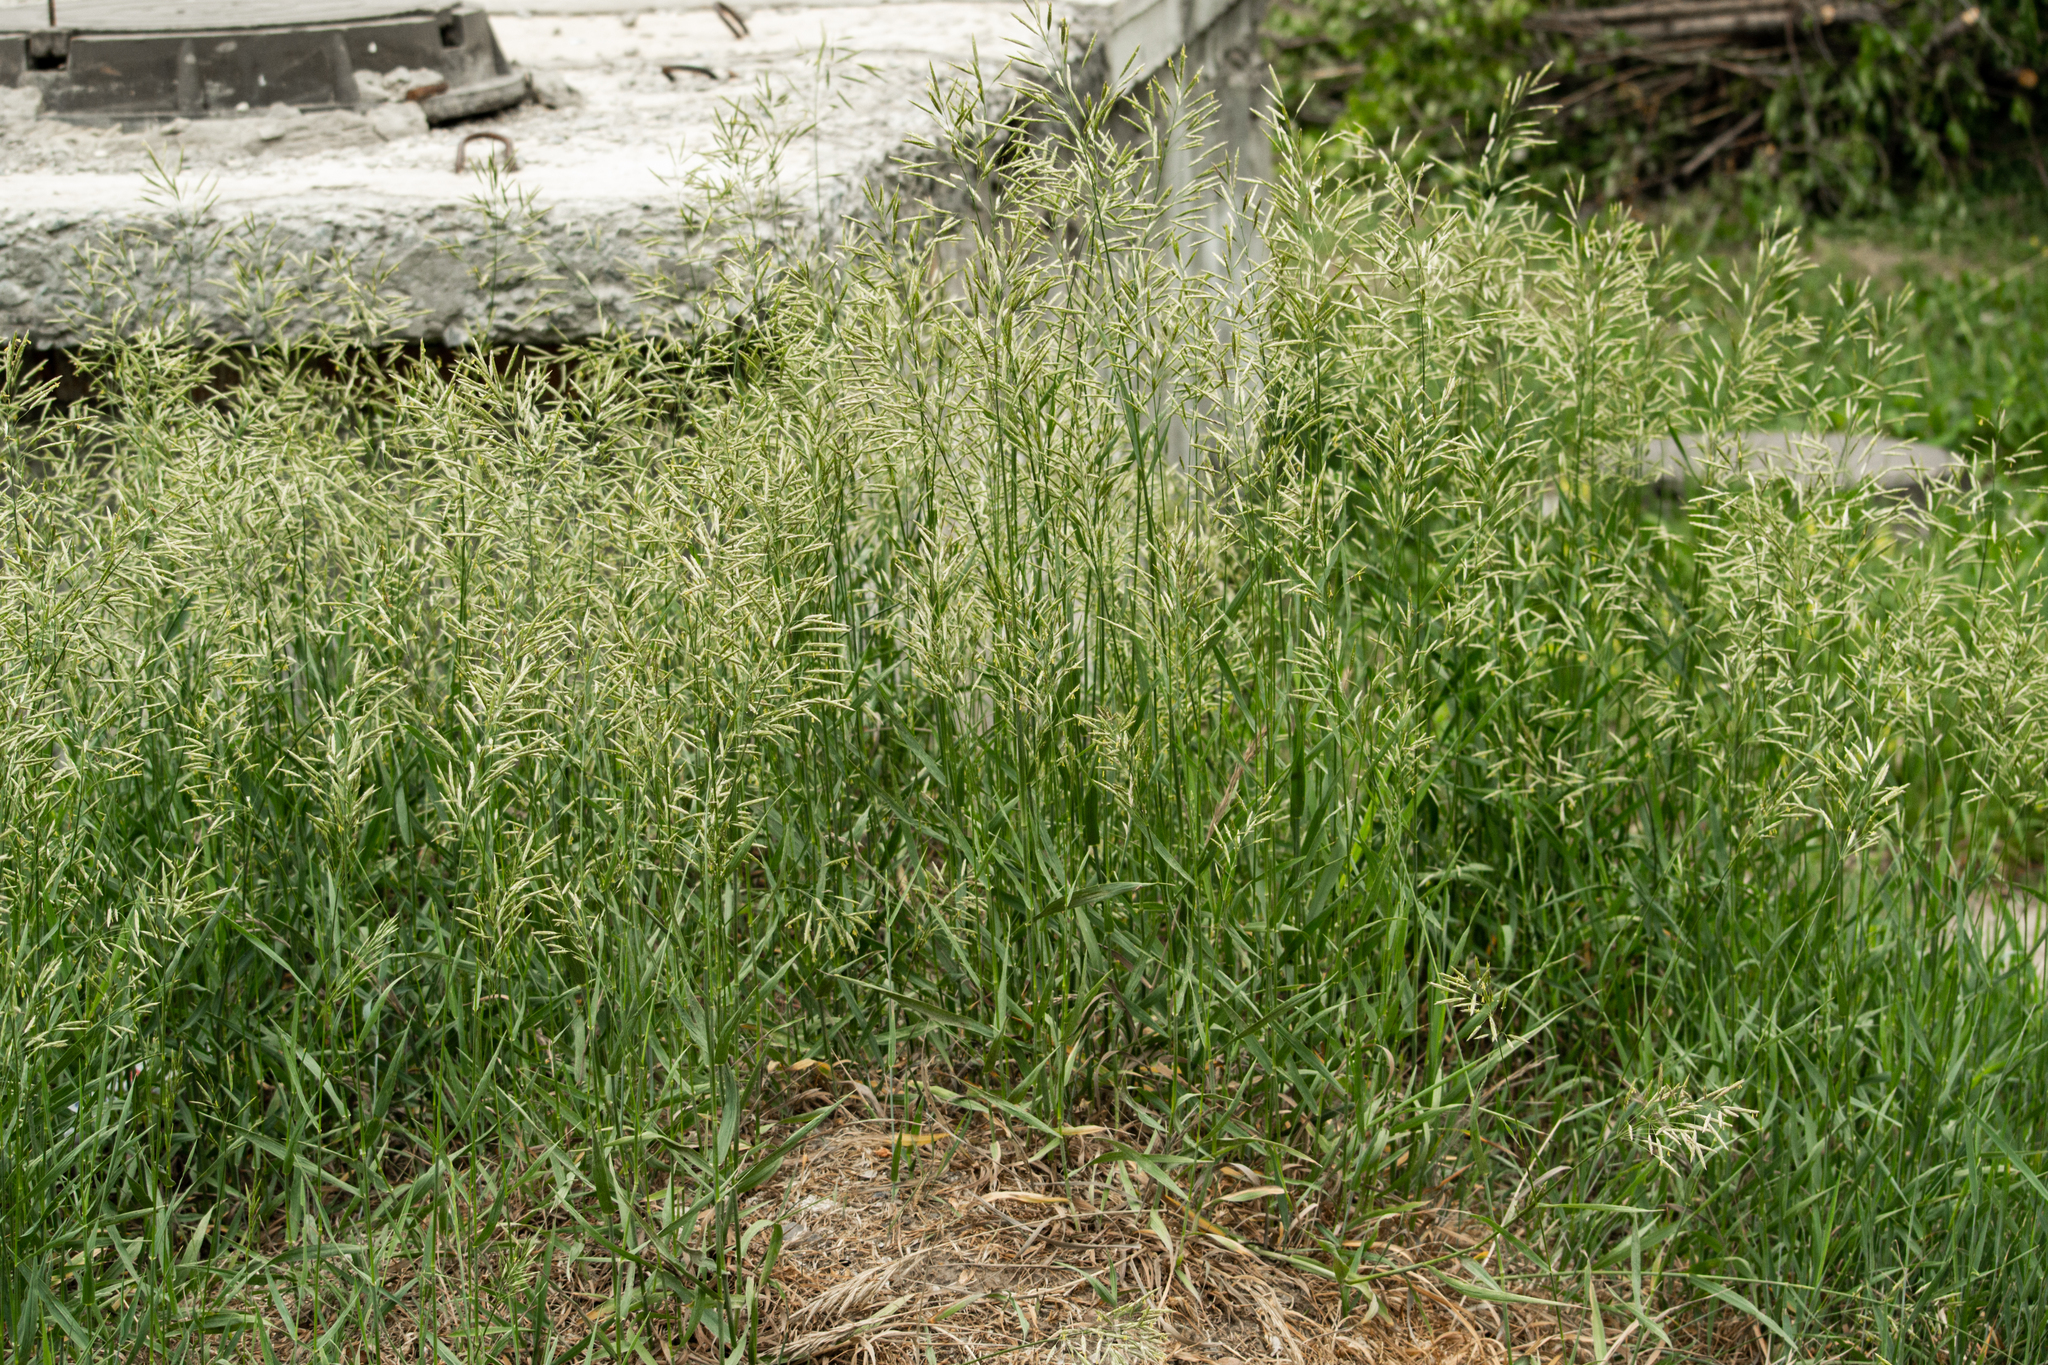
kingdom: Plantae
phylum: Tracheophyta
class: Liliopsida
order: Poales
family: Poaceae
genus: Bromus
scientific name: Bromus inermis
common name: Smooth brome
